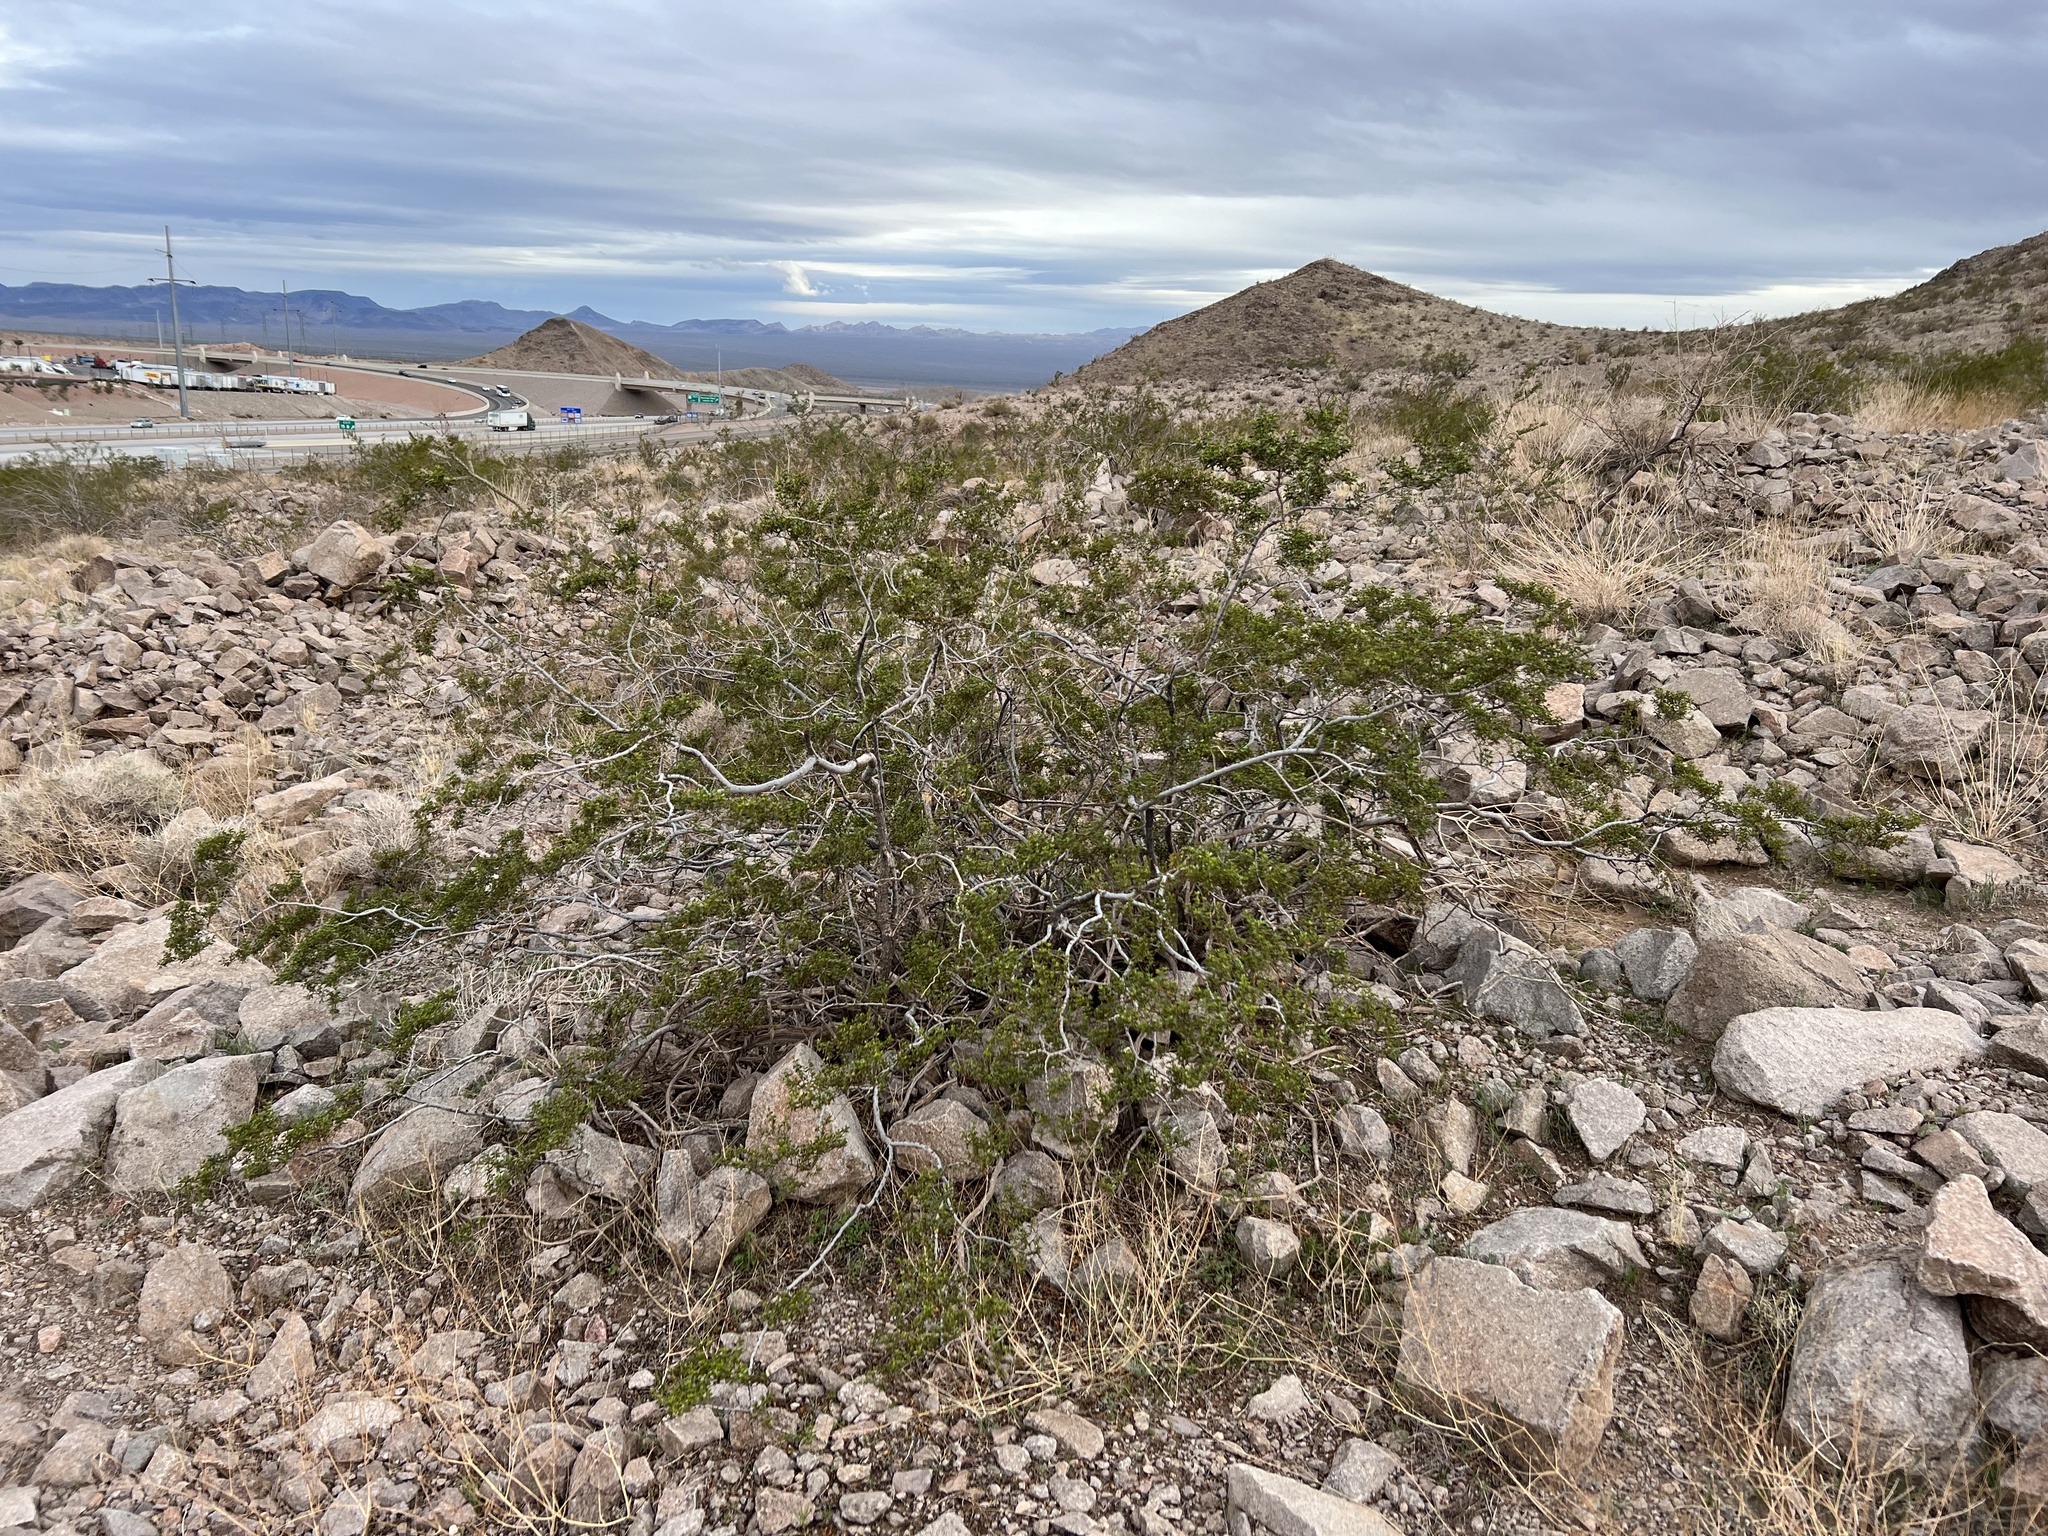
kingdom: Plantae
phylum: Tracheophyta
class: Magnoliopsida
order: Zygophyllales
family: Zygophyllaceae
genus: Larrea
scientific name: Larrea tridentata
